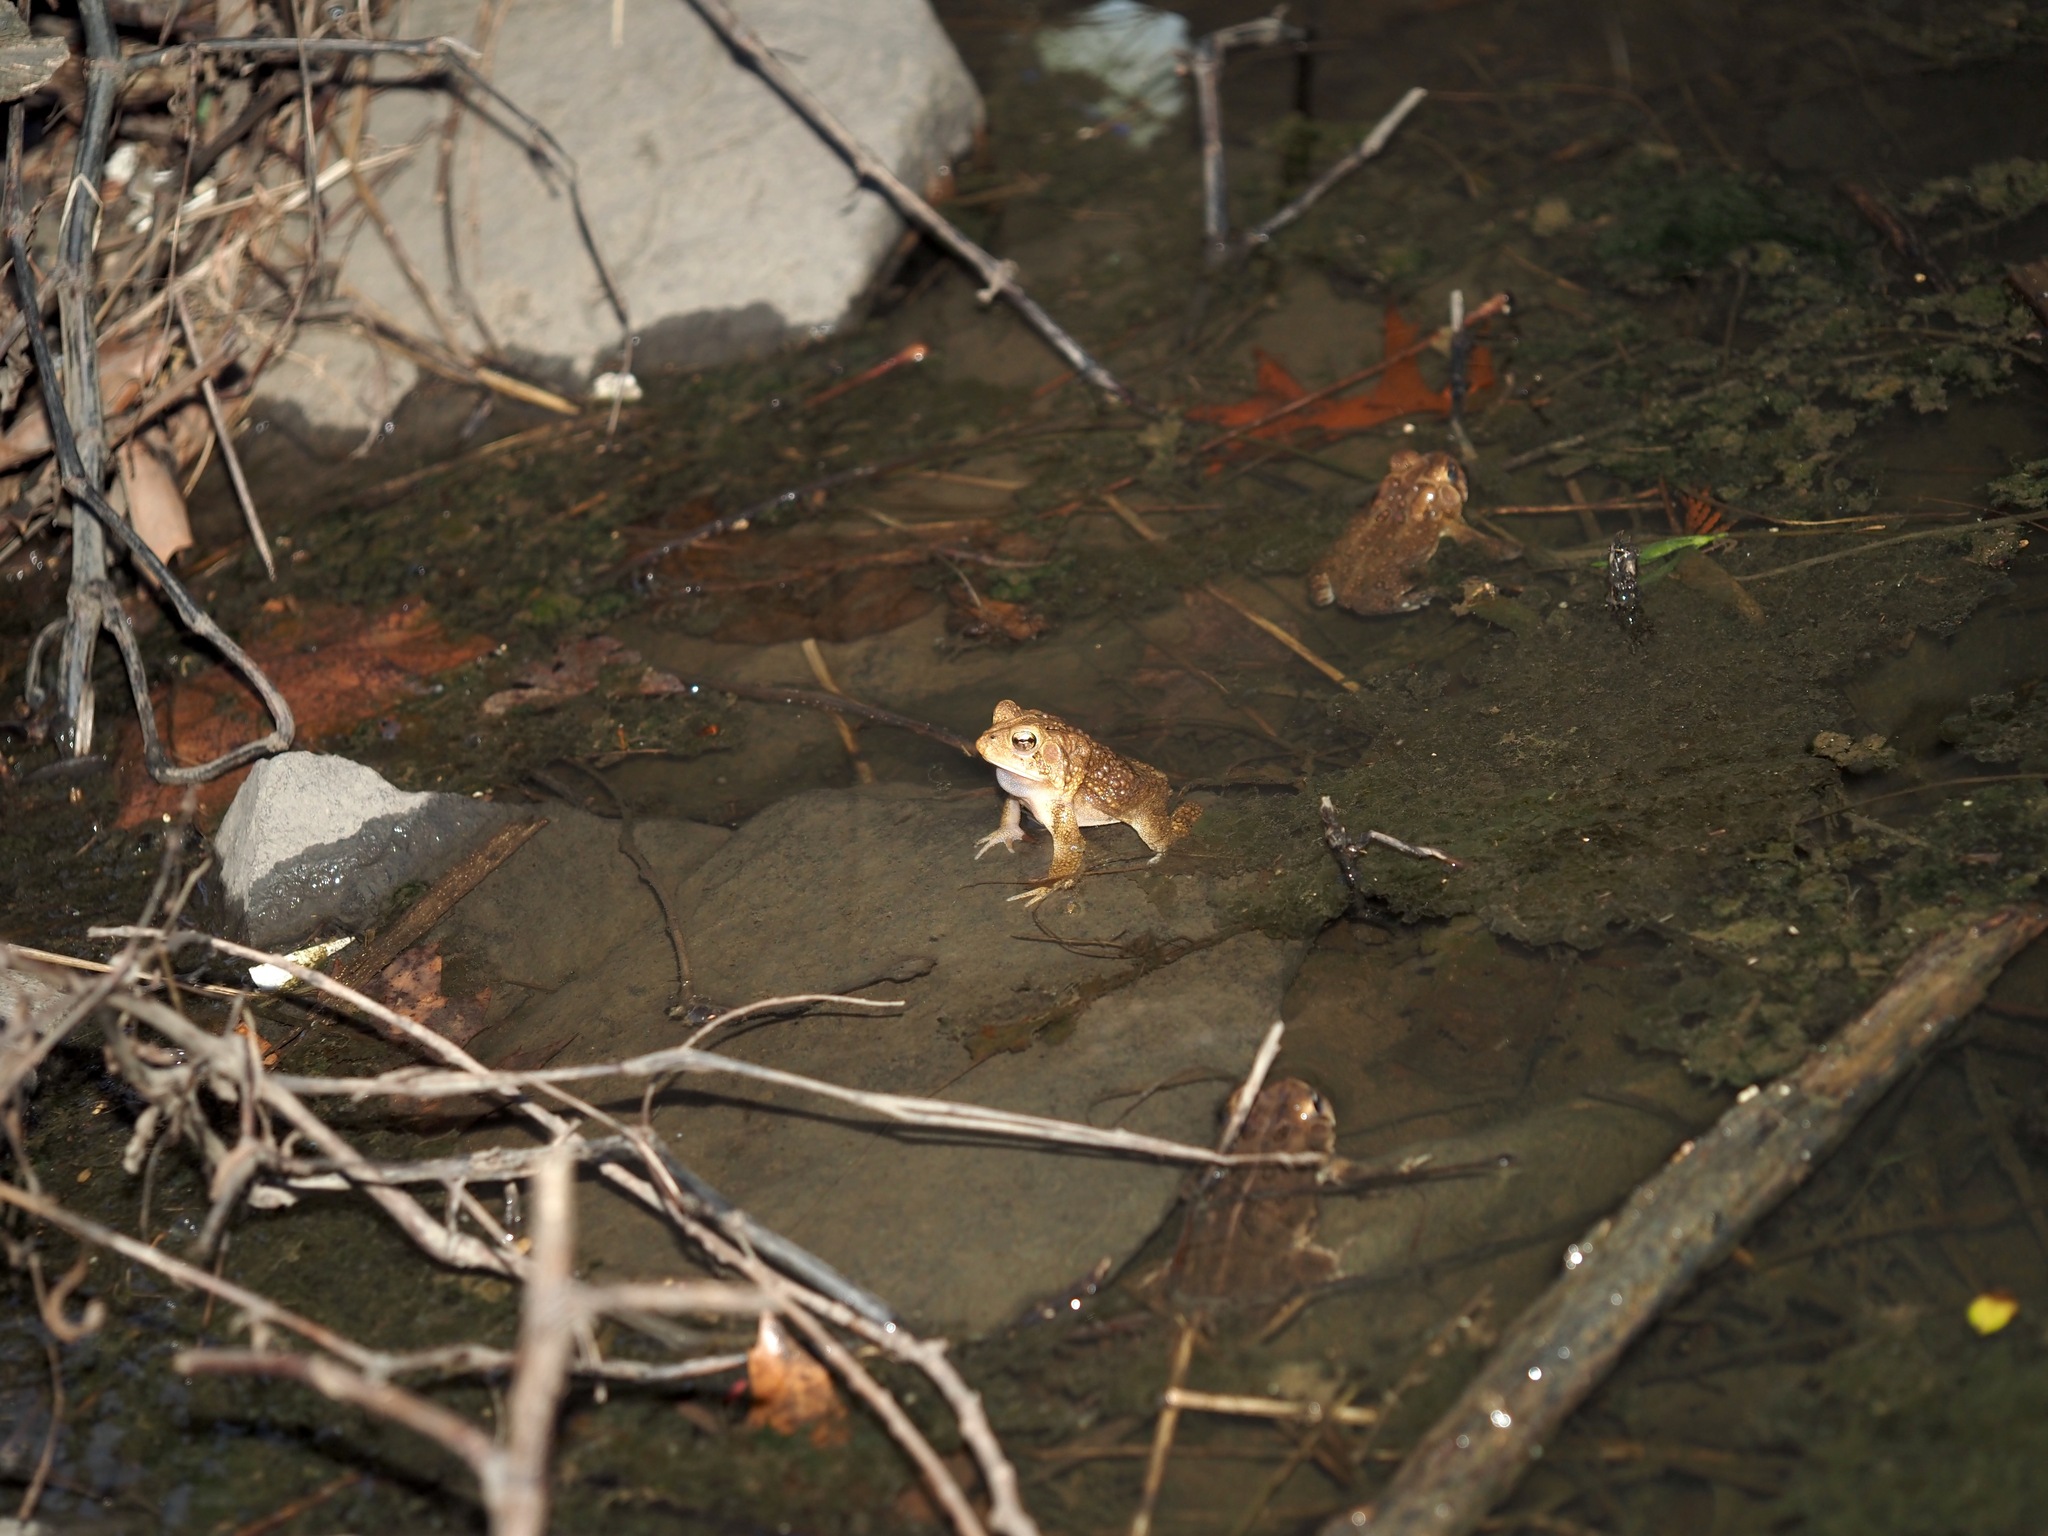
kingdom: Animalia
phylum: Chordata
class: Amphibia
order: Anura
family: Bufonidae
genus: Anaxyrus
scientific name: Anaxyrus americanus
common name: American toad
